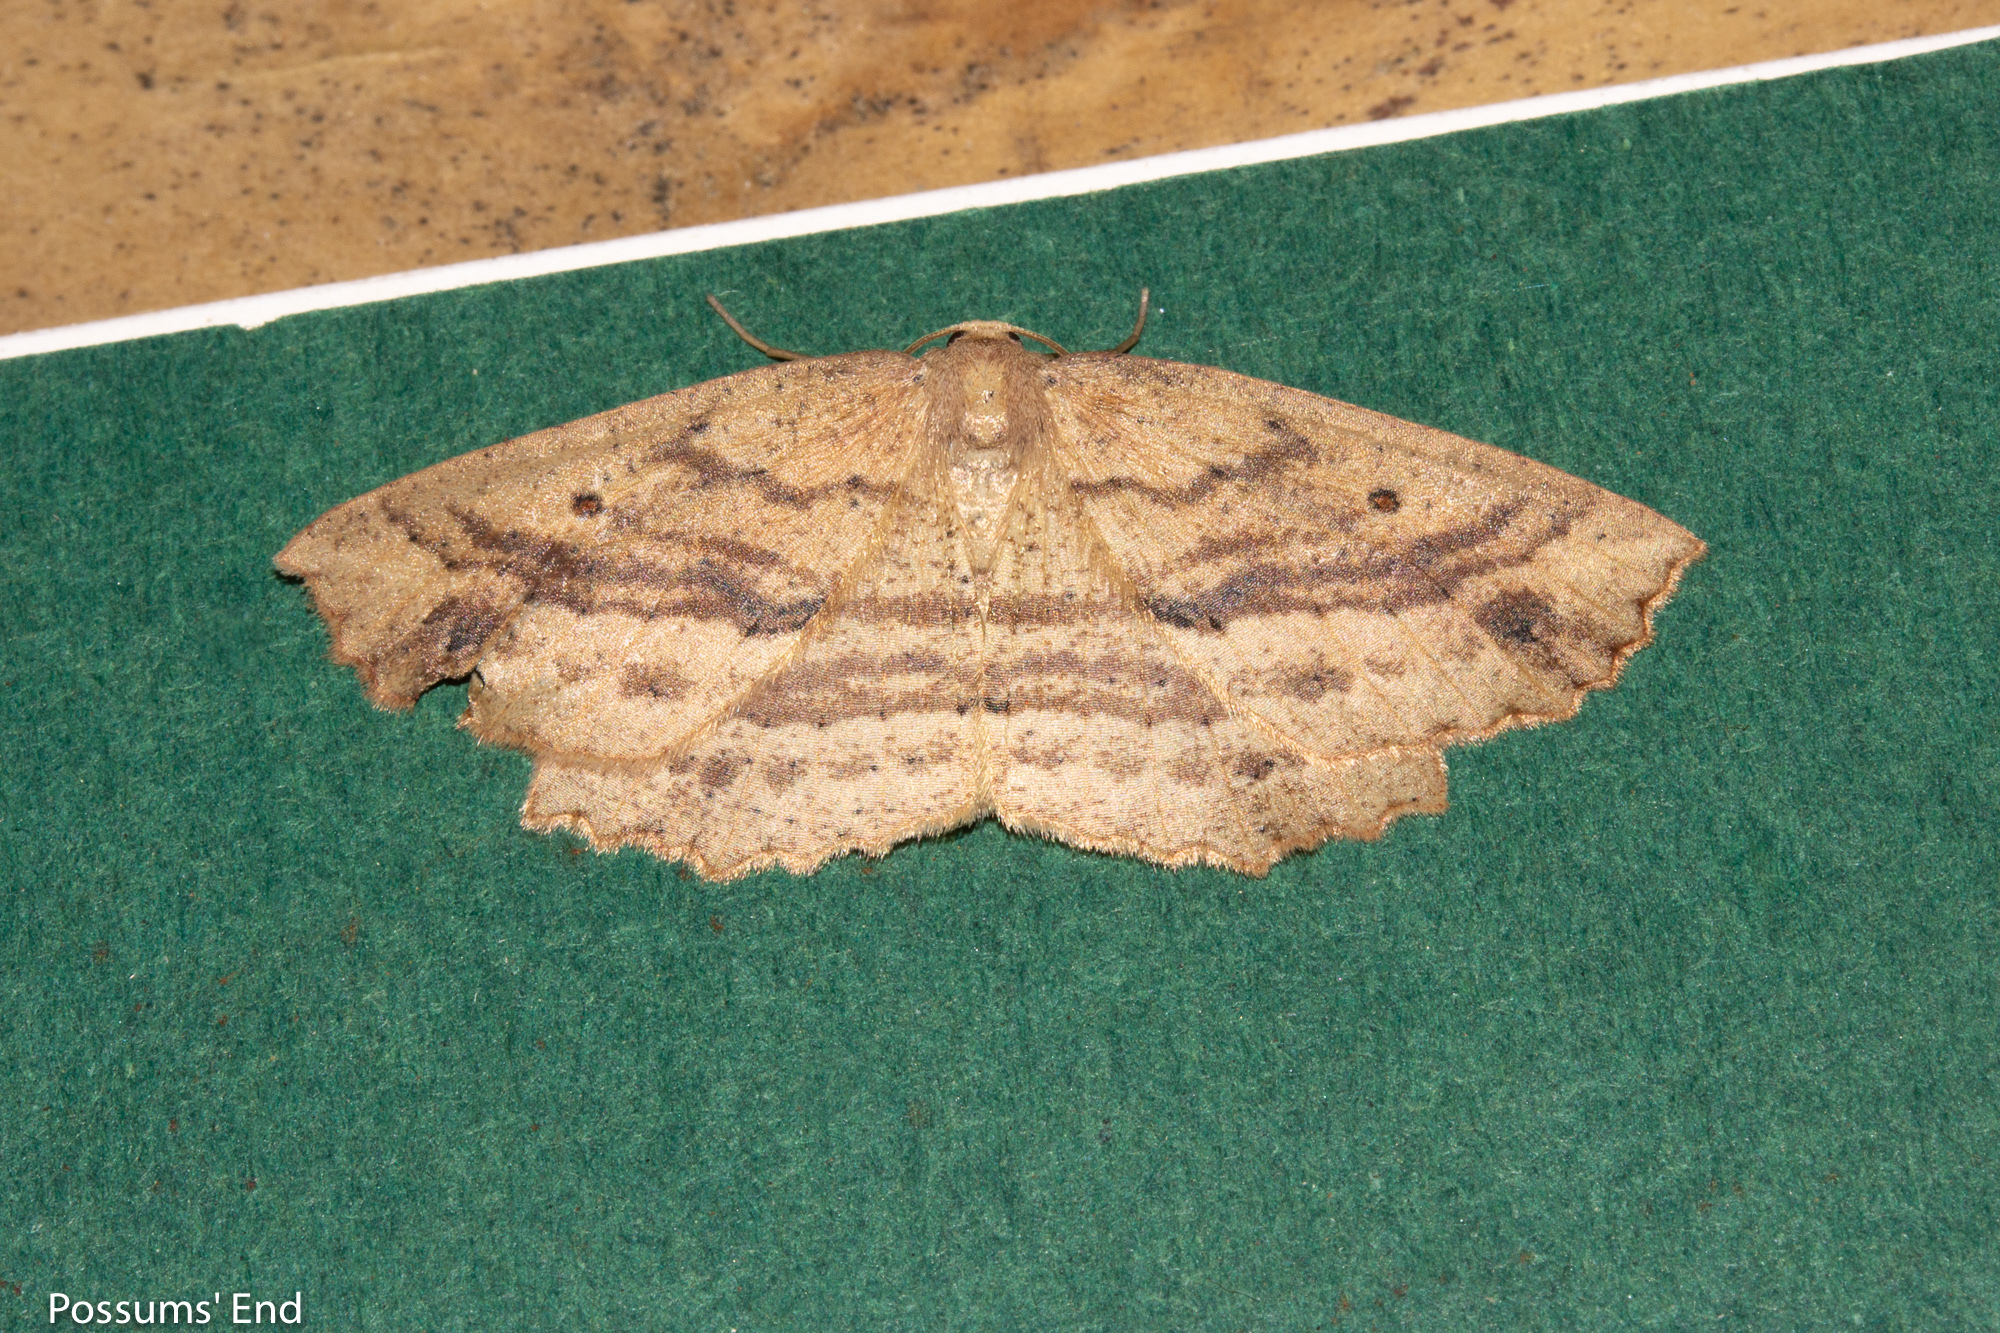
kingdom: Animalia
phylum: Arthropoda
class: Insecta
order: Lepidoptera
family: Geometridae
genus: Xyridacma
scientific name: Xyridacma veronicae
